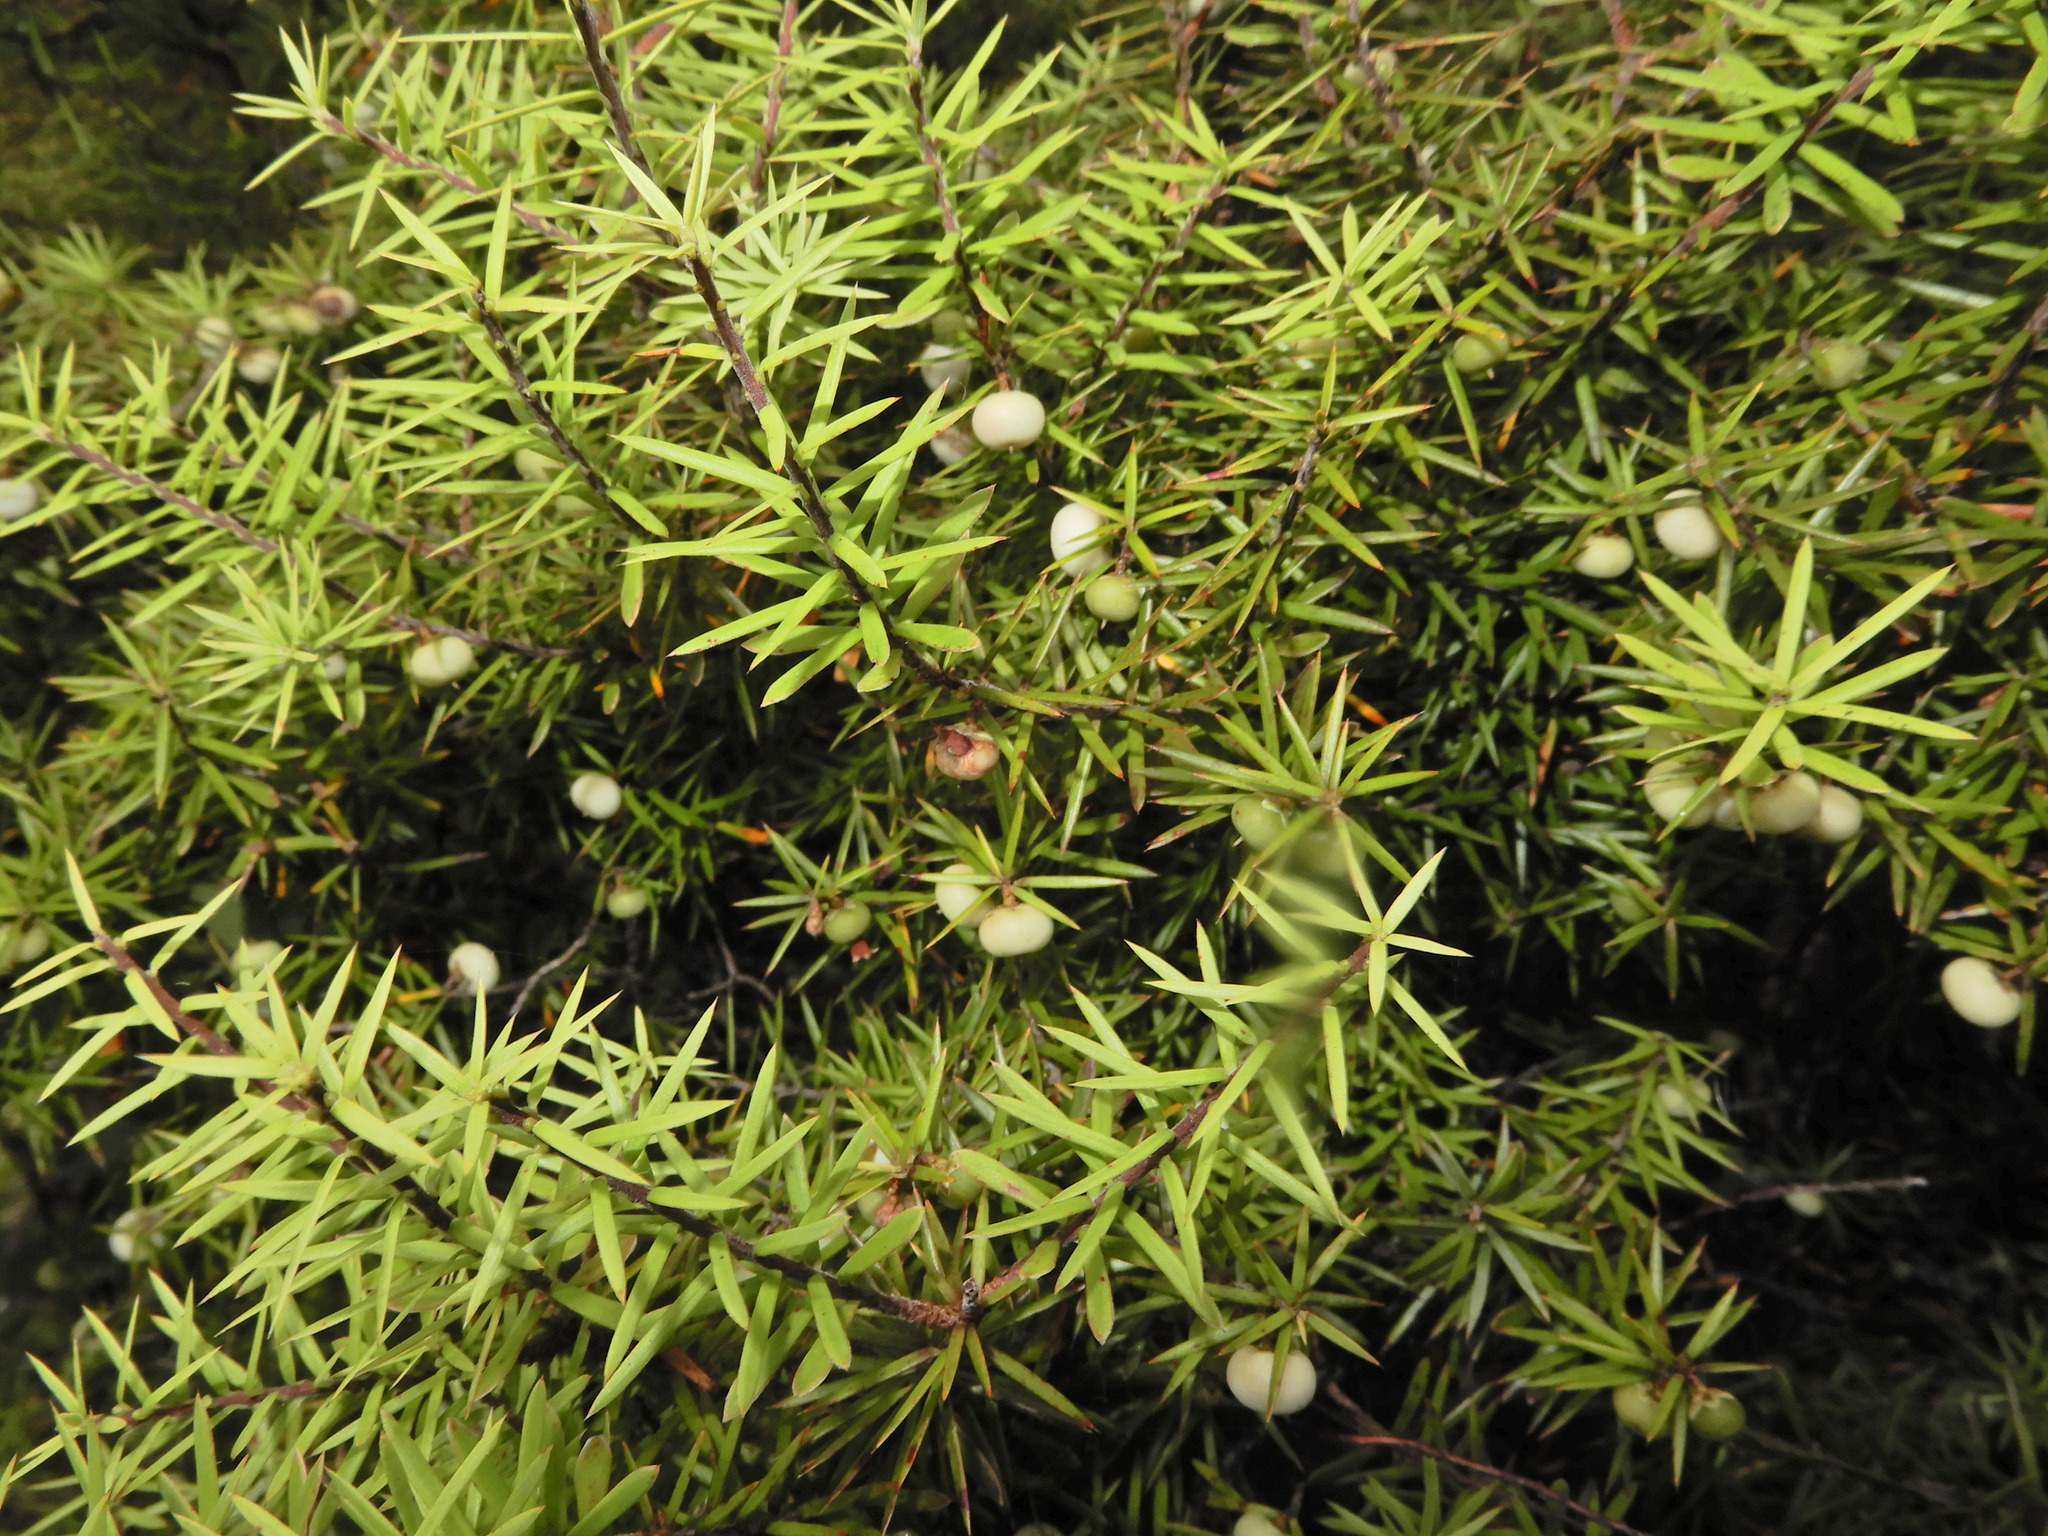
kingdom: Plantae
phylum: Tracheophyta
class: Magnoliopsida
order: Ericales
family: Ericaceae
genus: Leptecophylla
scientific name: Leptecophylla juniperina
